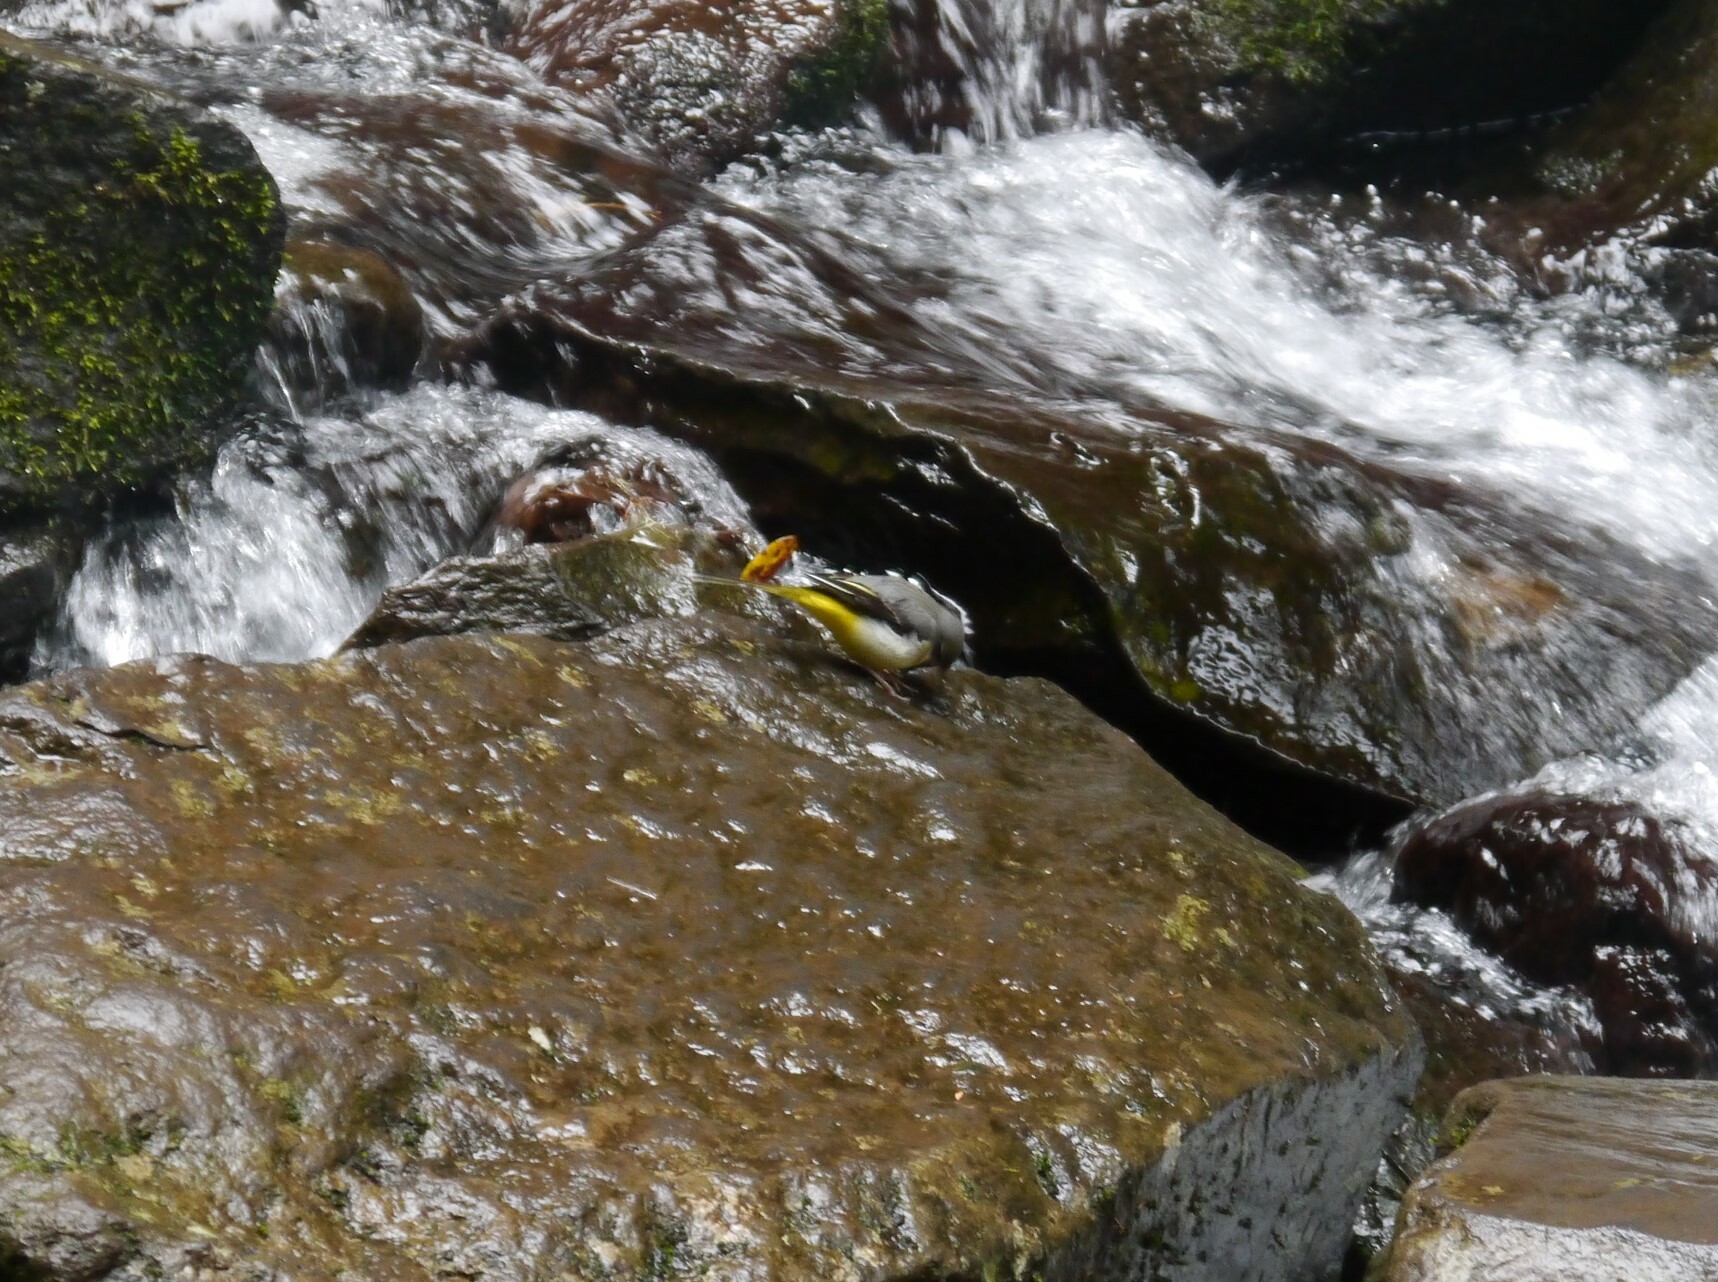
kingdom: Animalia
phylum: Chordata
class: Aves
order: Passeriformes
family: Motacillidae
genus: Motacilla
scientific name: Motacilla cinerea
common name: Grey wagtail
